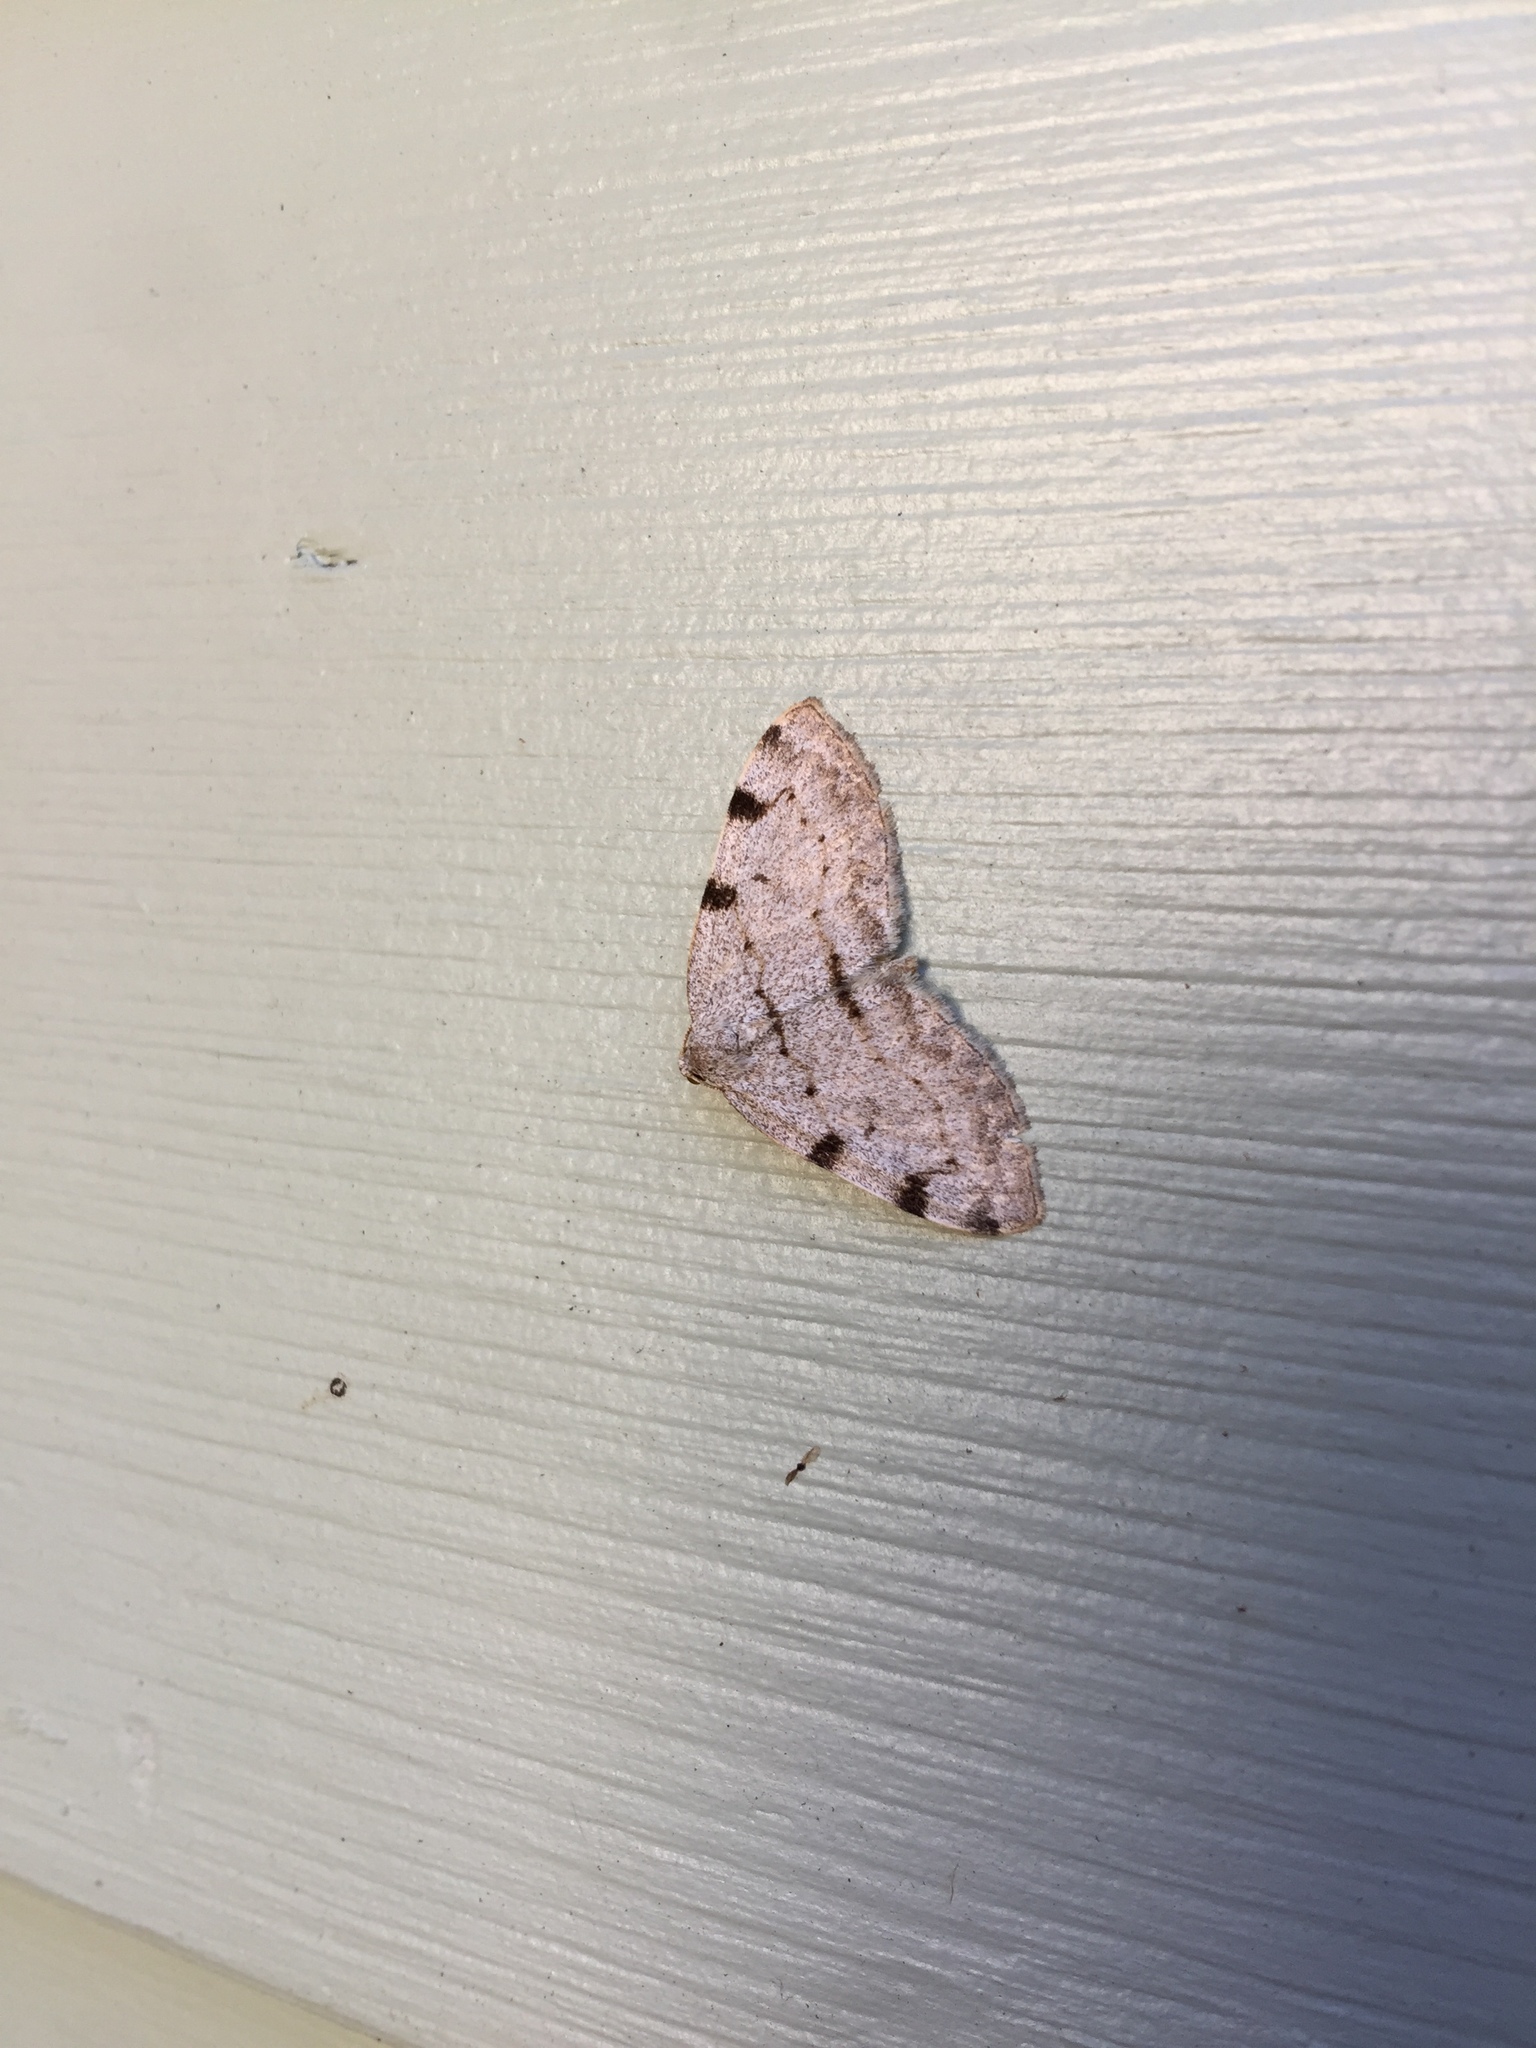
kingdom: Animalia
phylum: Arthropoda
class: Insecta
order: Lepidoptera
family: Geometridae
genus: Heterophleps
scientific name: Heterophleps refusaria
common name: Three-patched bigwing
